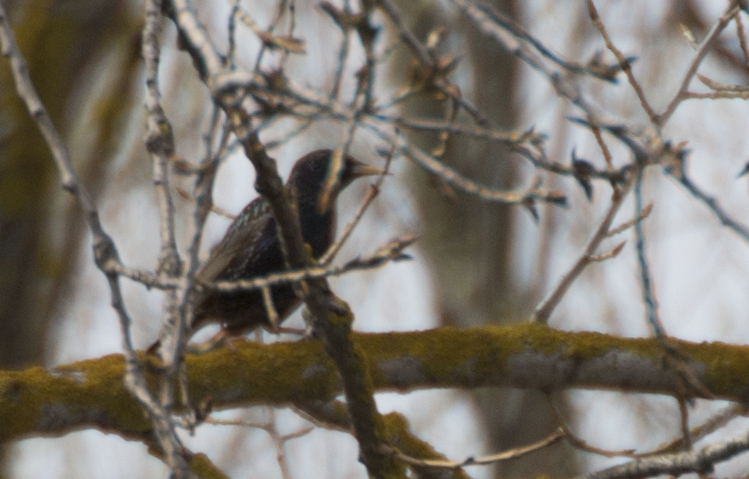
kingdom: Animalia
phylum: Chordata
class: Aves
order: Passeriformes
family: Sturnidae
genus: Sturnus
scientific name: Sturnus vulgaris
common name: Common starling
